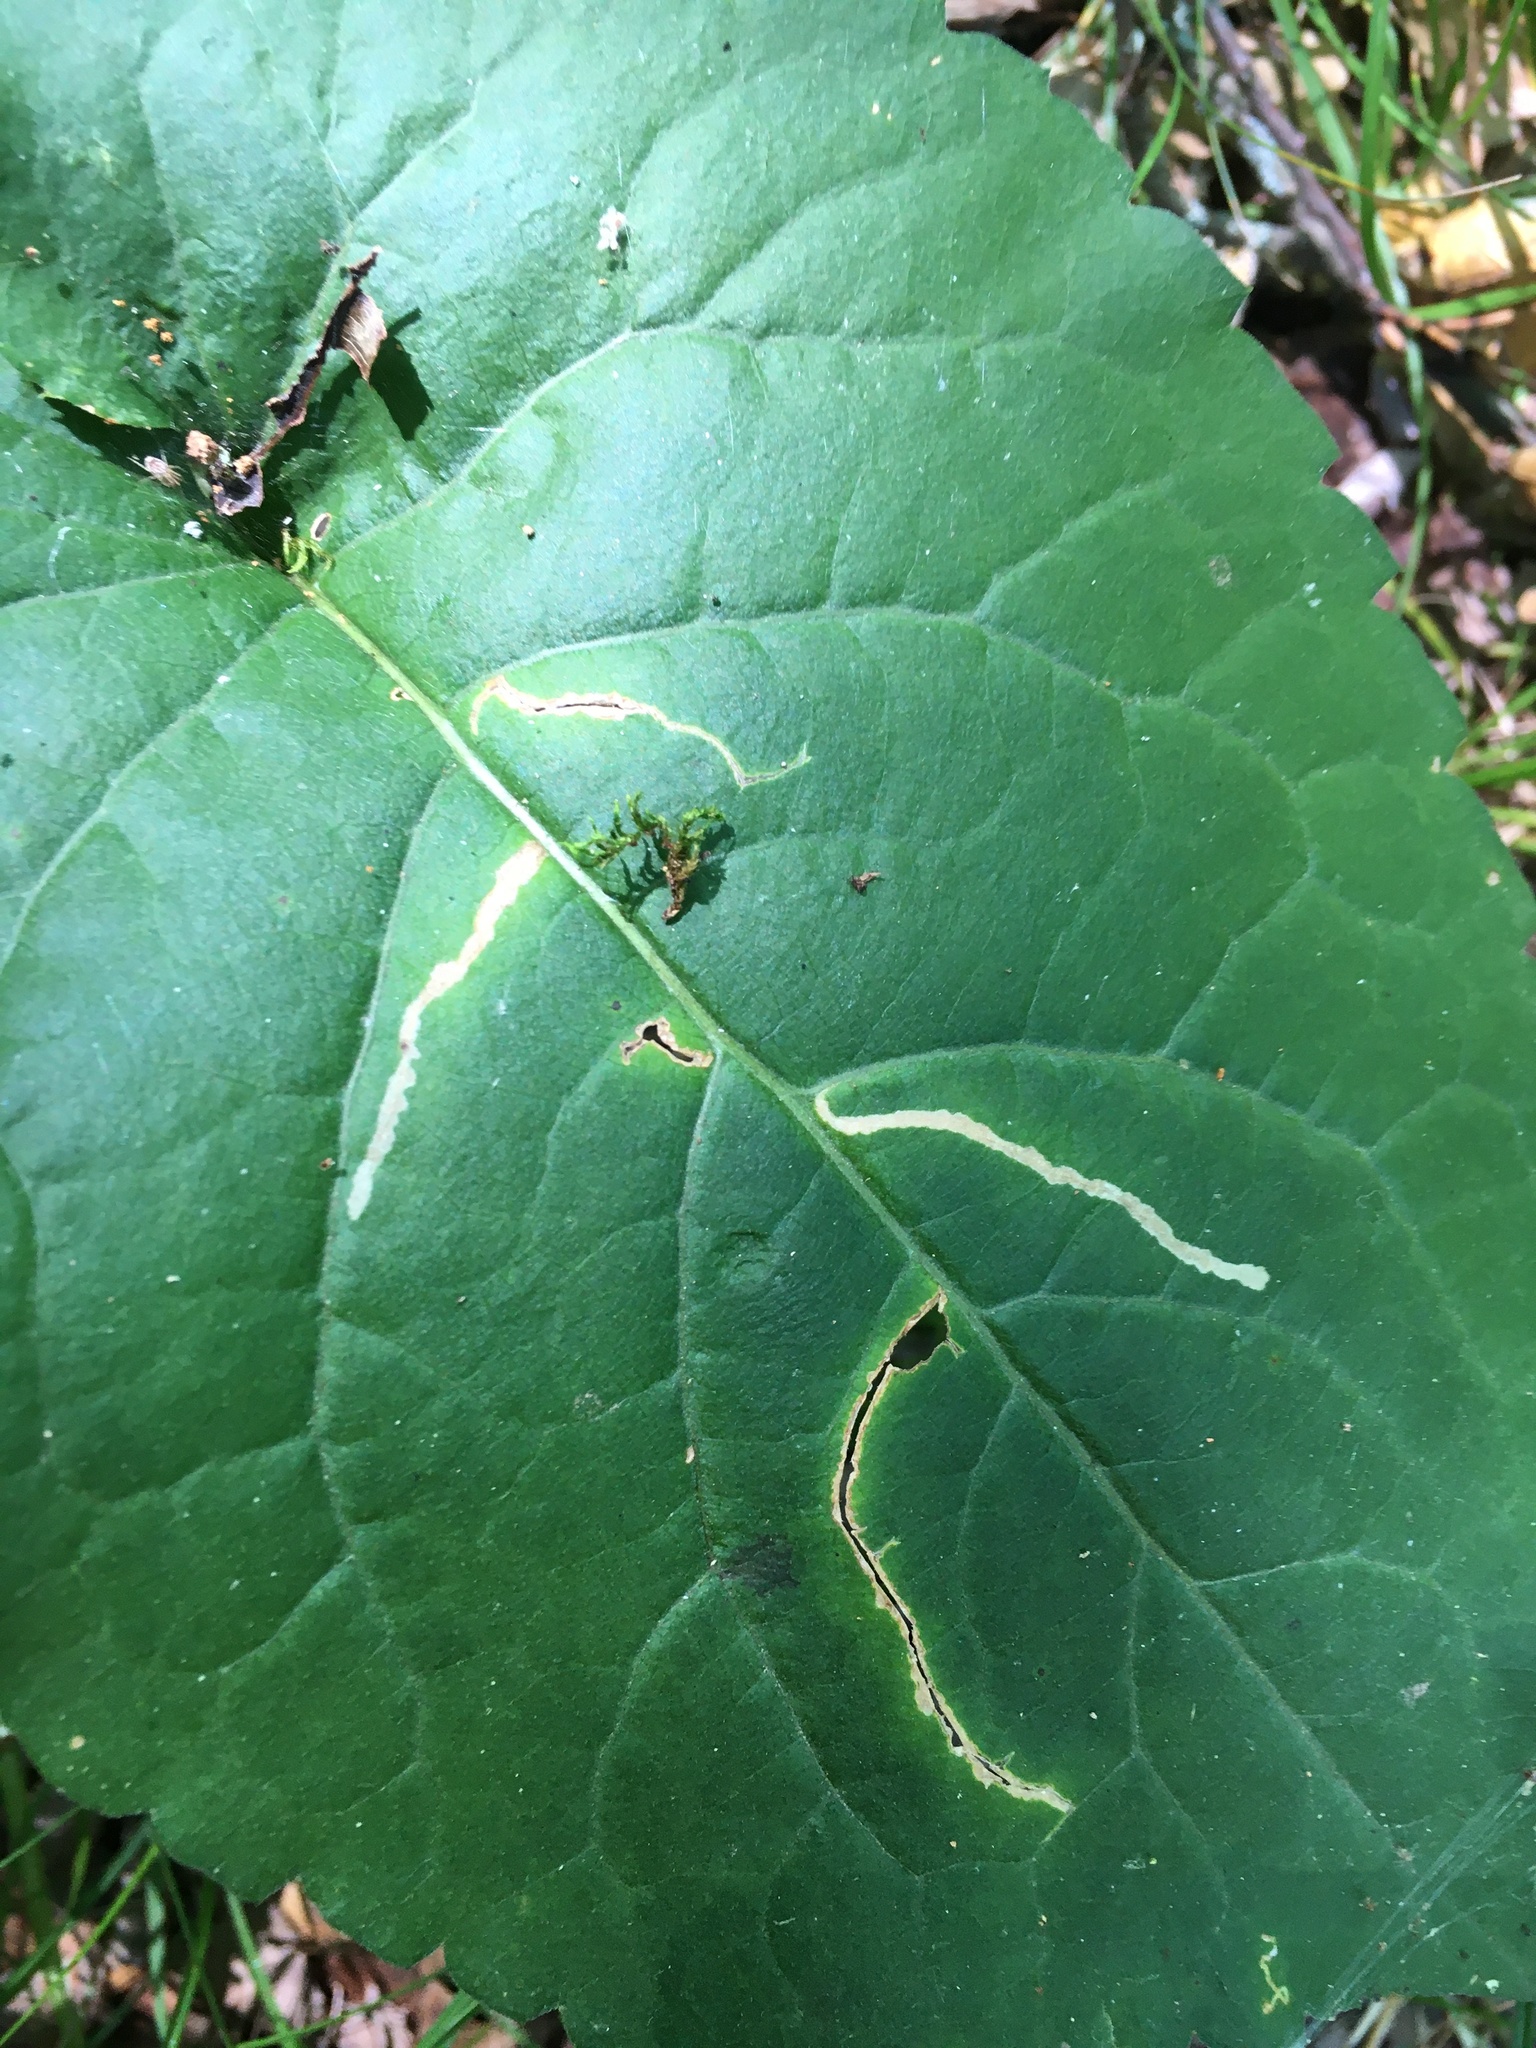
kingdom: Animalia
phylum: Arthropoda
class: Insecta
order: Lepidoptera
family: Gelechiidae
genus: Scrobipalpula
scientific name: Scrobipalpula manierreorum
